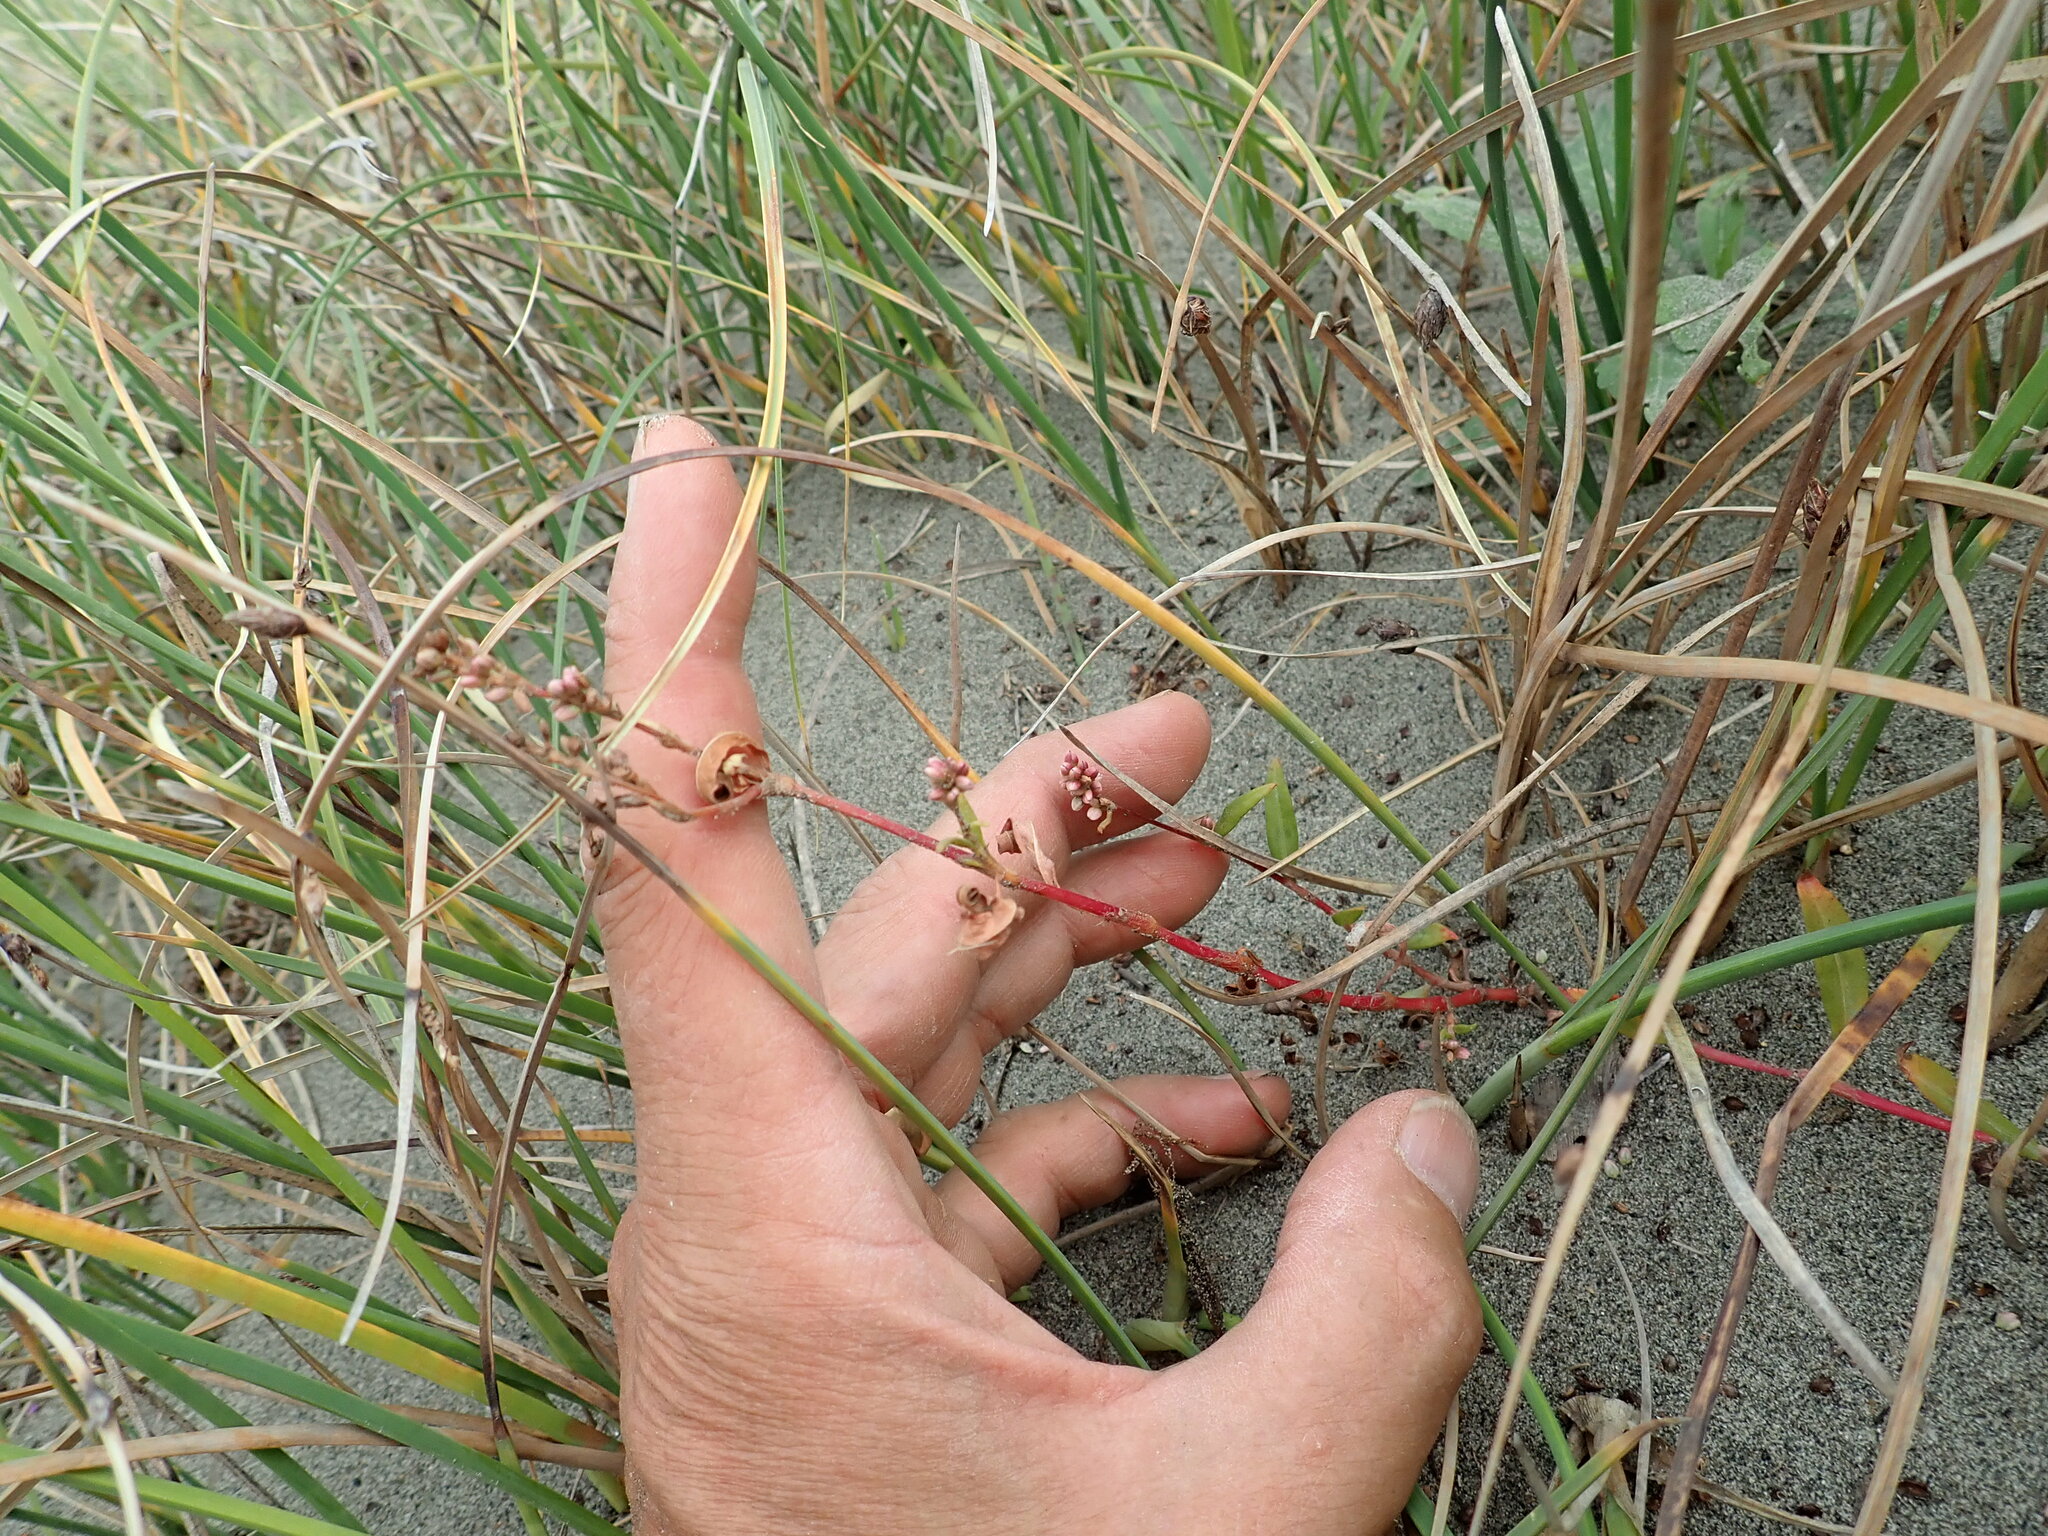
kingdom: Plantae
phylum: Tracheophyta
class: Magnoliopsida
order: Caryophyllales
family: Polygonaceae
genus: Persicaria
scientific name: Persicaria maculosa
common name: Redshank
